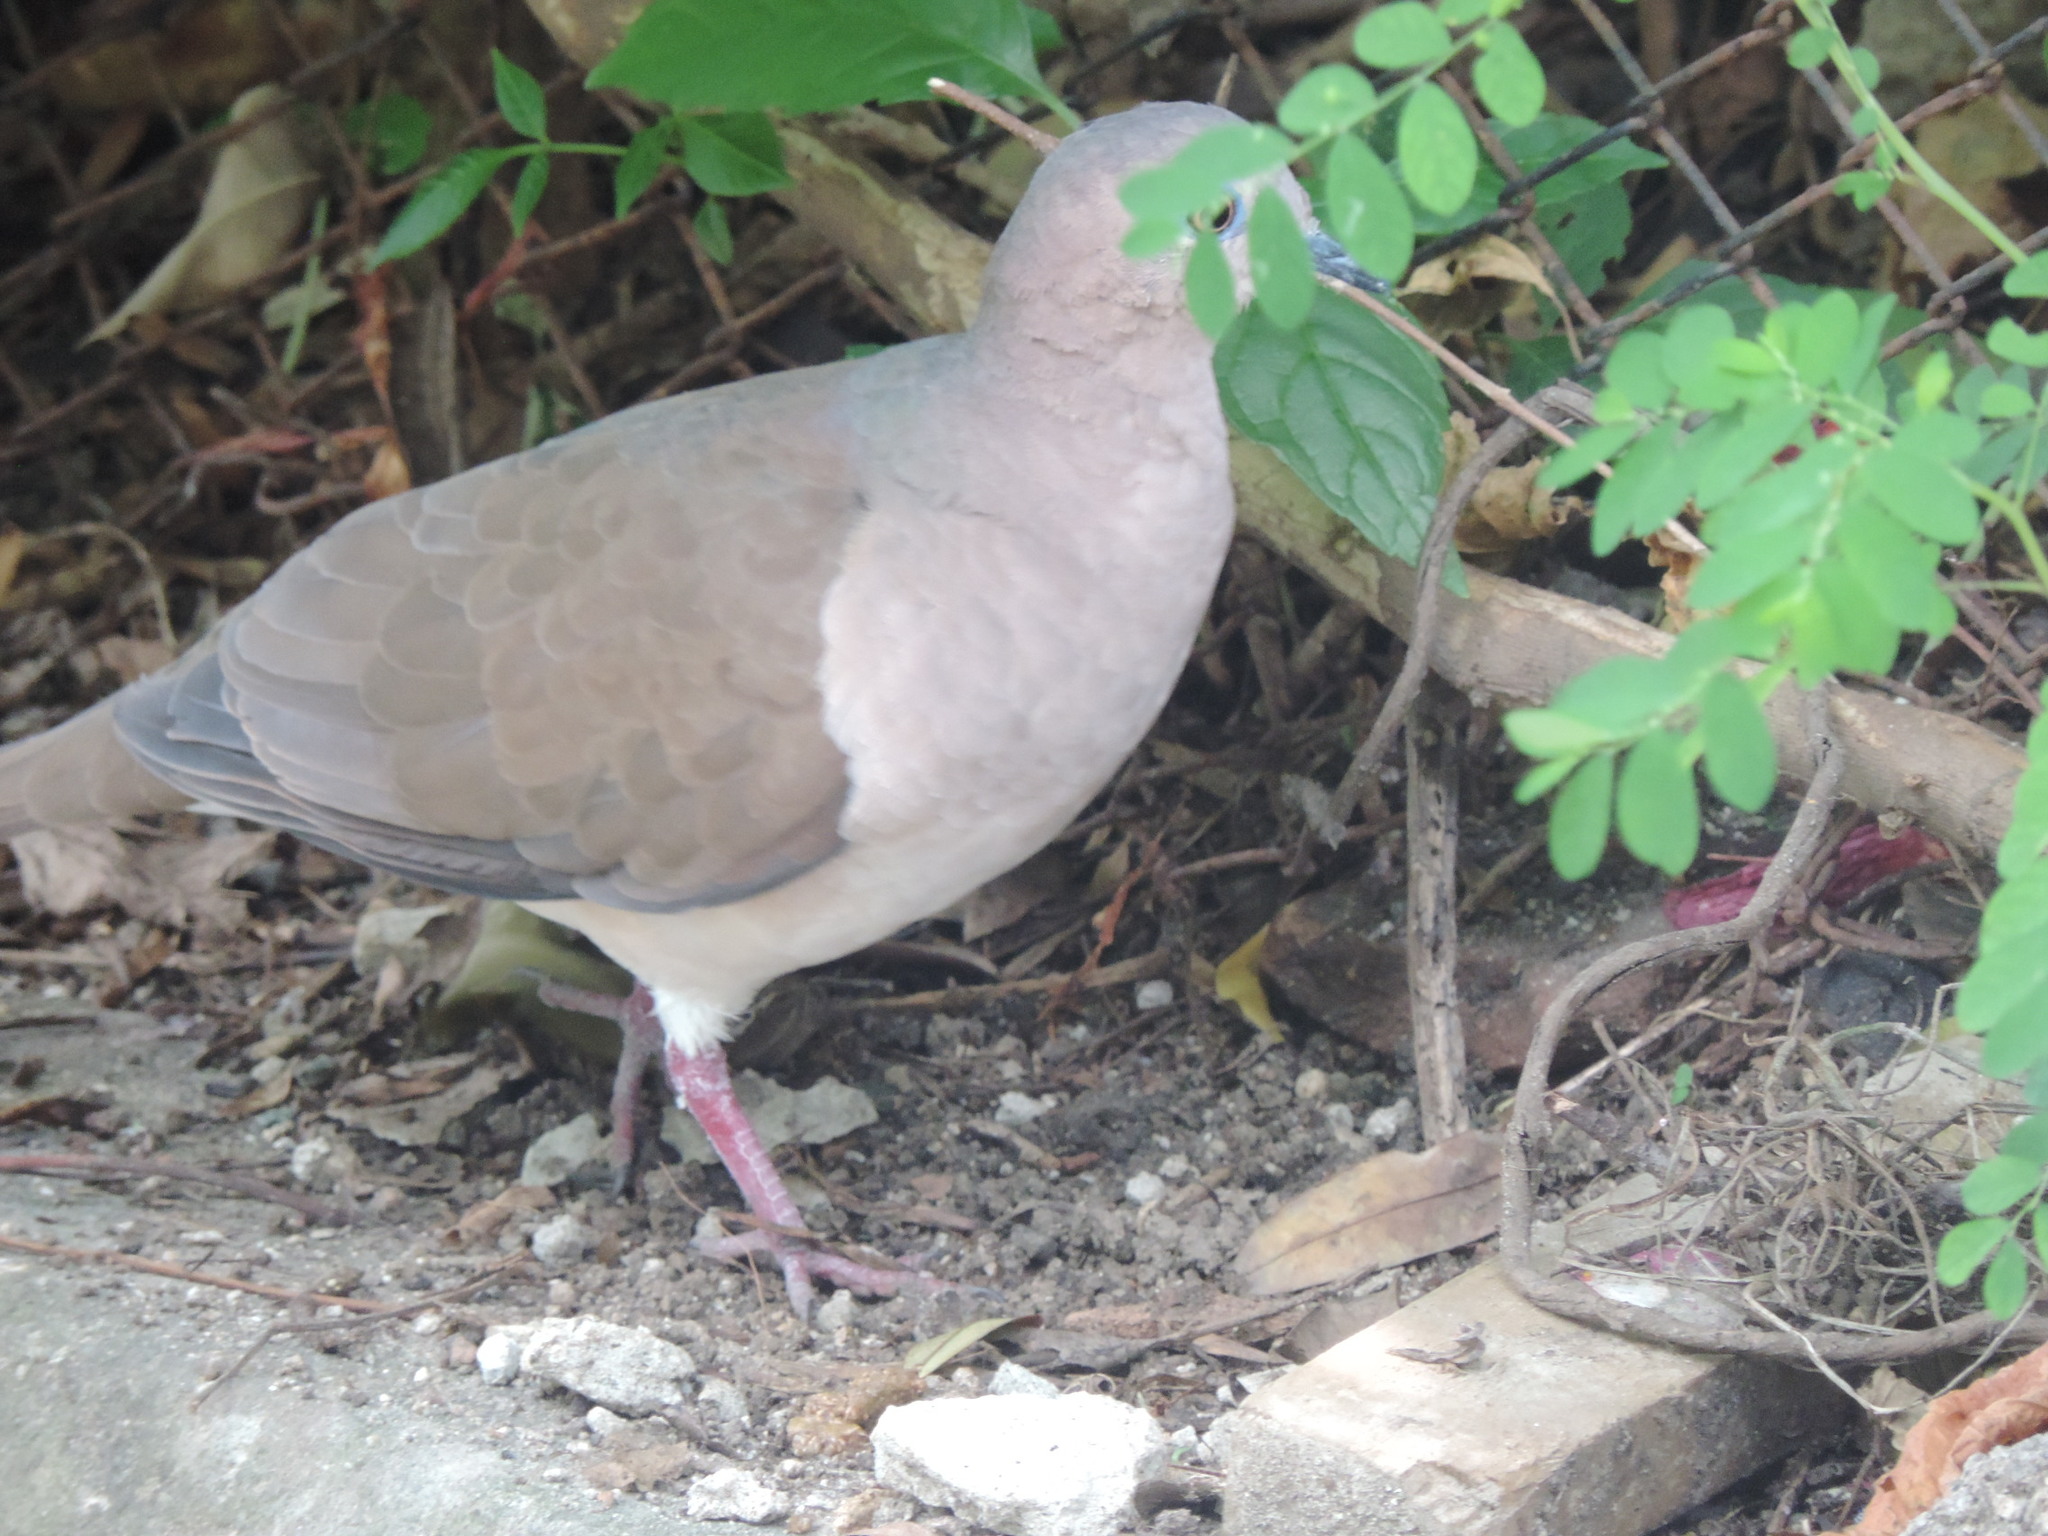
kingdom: Animalia
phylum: Chordata
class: Aves
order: Columbiformes
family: Columbidae
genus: Leptotila
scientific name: Leptotila verreauxi
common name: White-tipped dove
